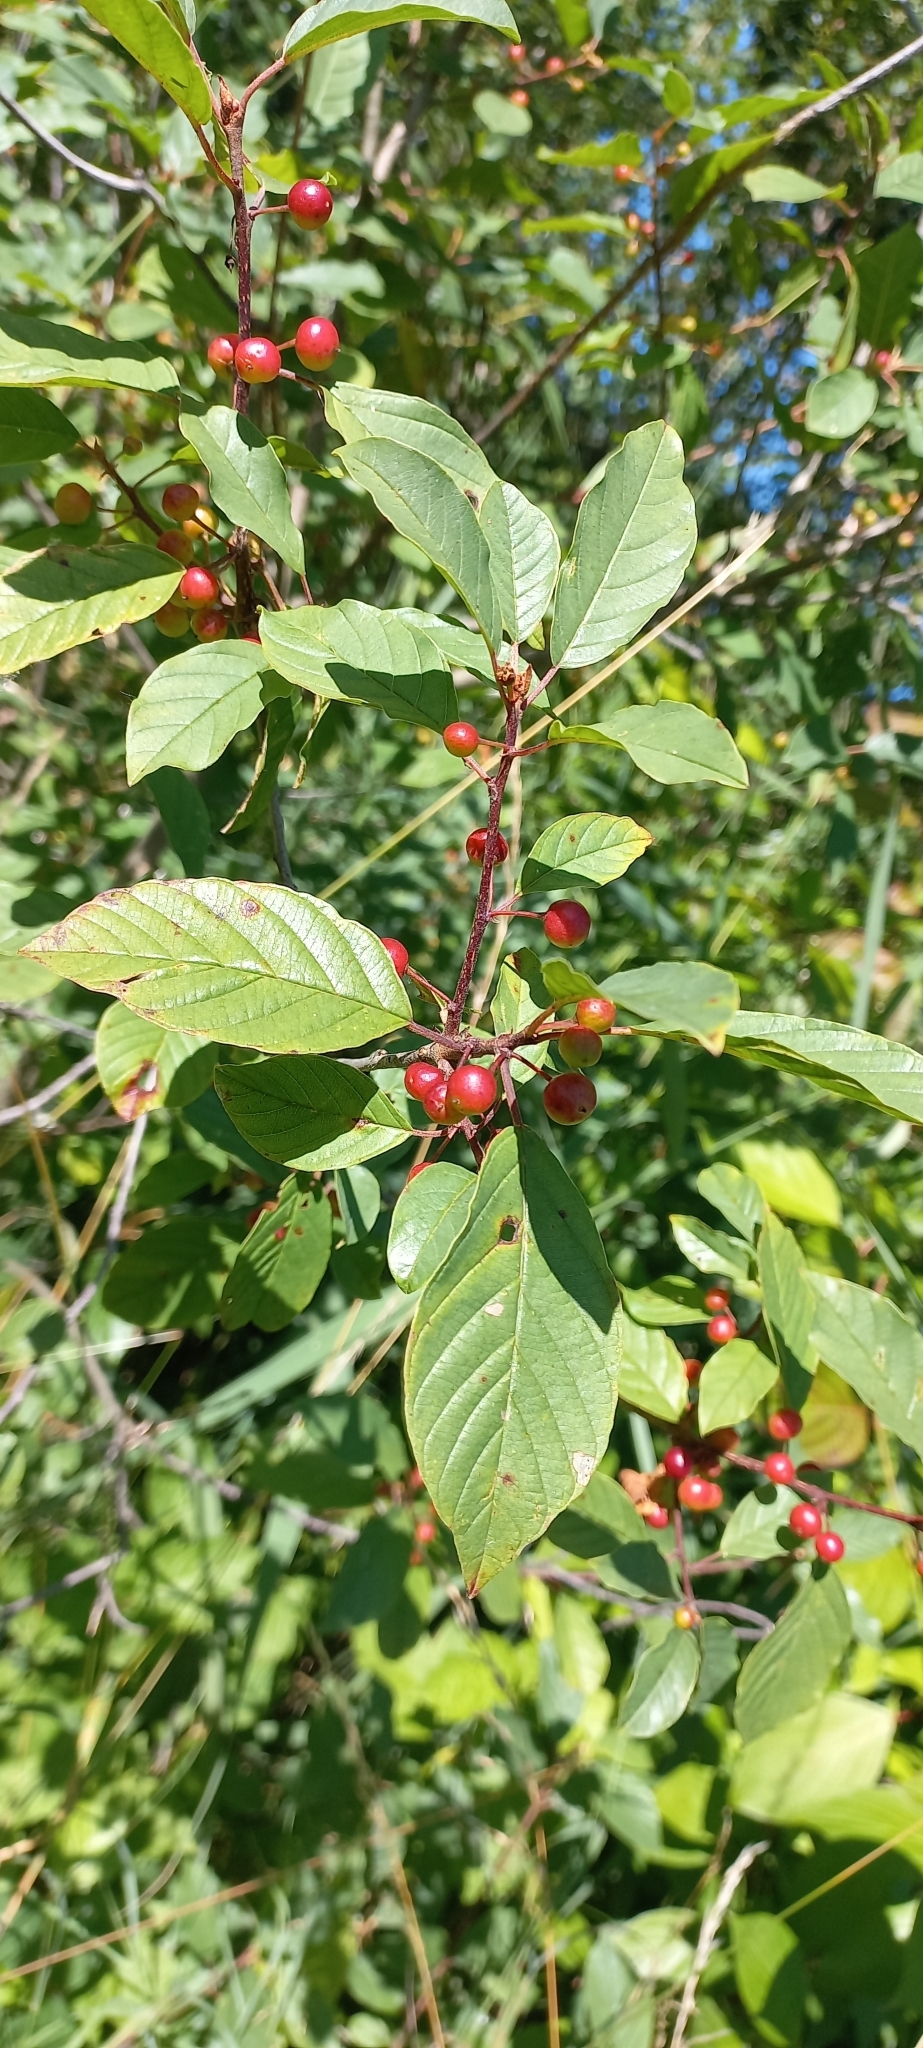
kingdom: Plantae
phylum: Tracheophyta
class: Magnoliopsida
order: Rosales
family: Rhamnaceae
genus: Frangula
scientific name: Frangula alnus
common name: Alder buckthorn
